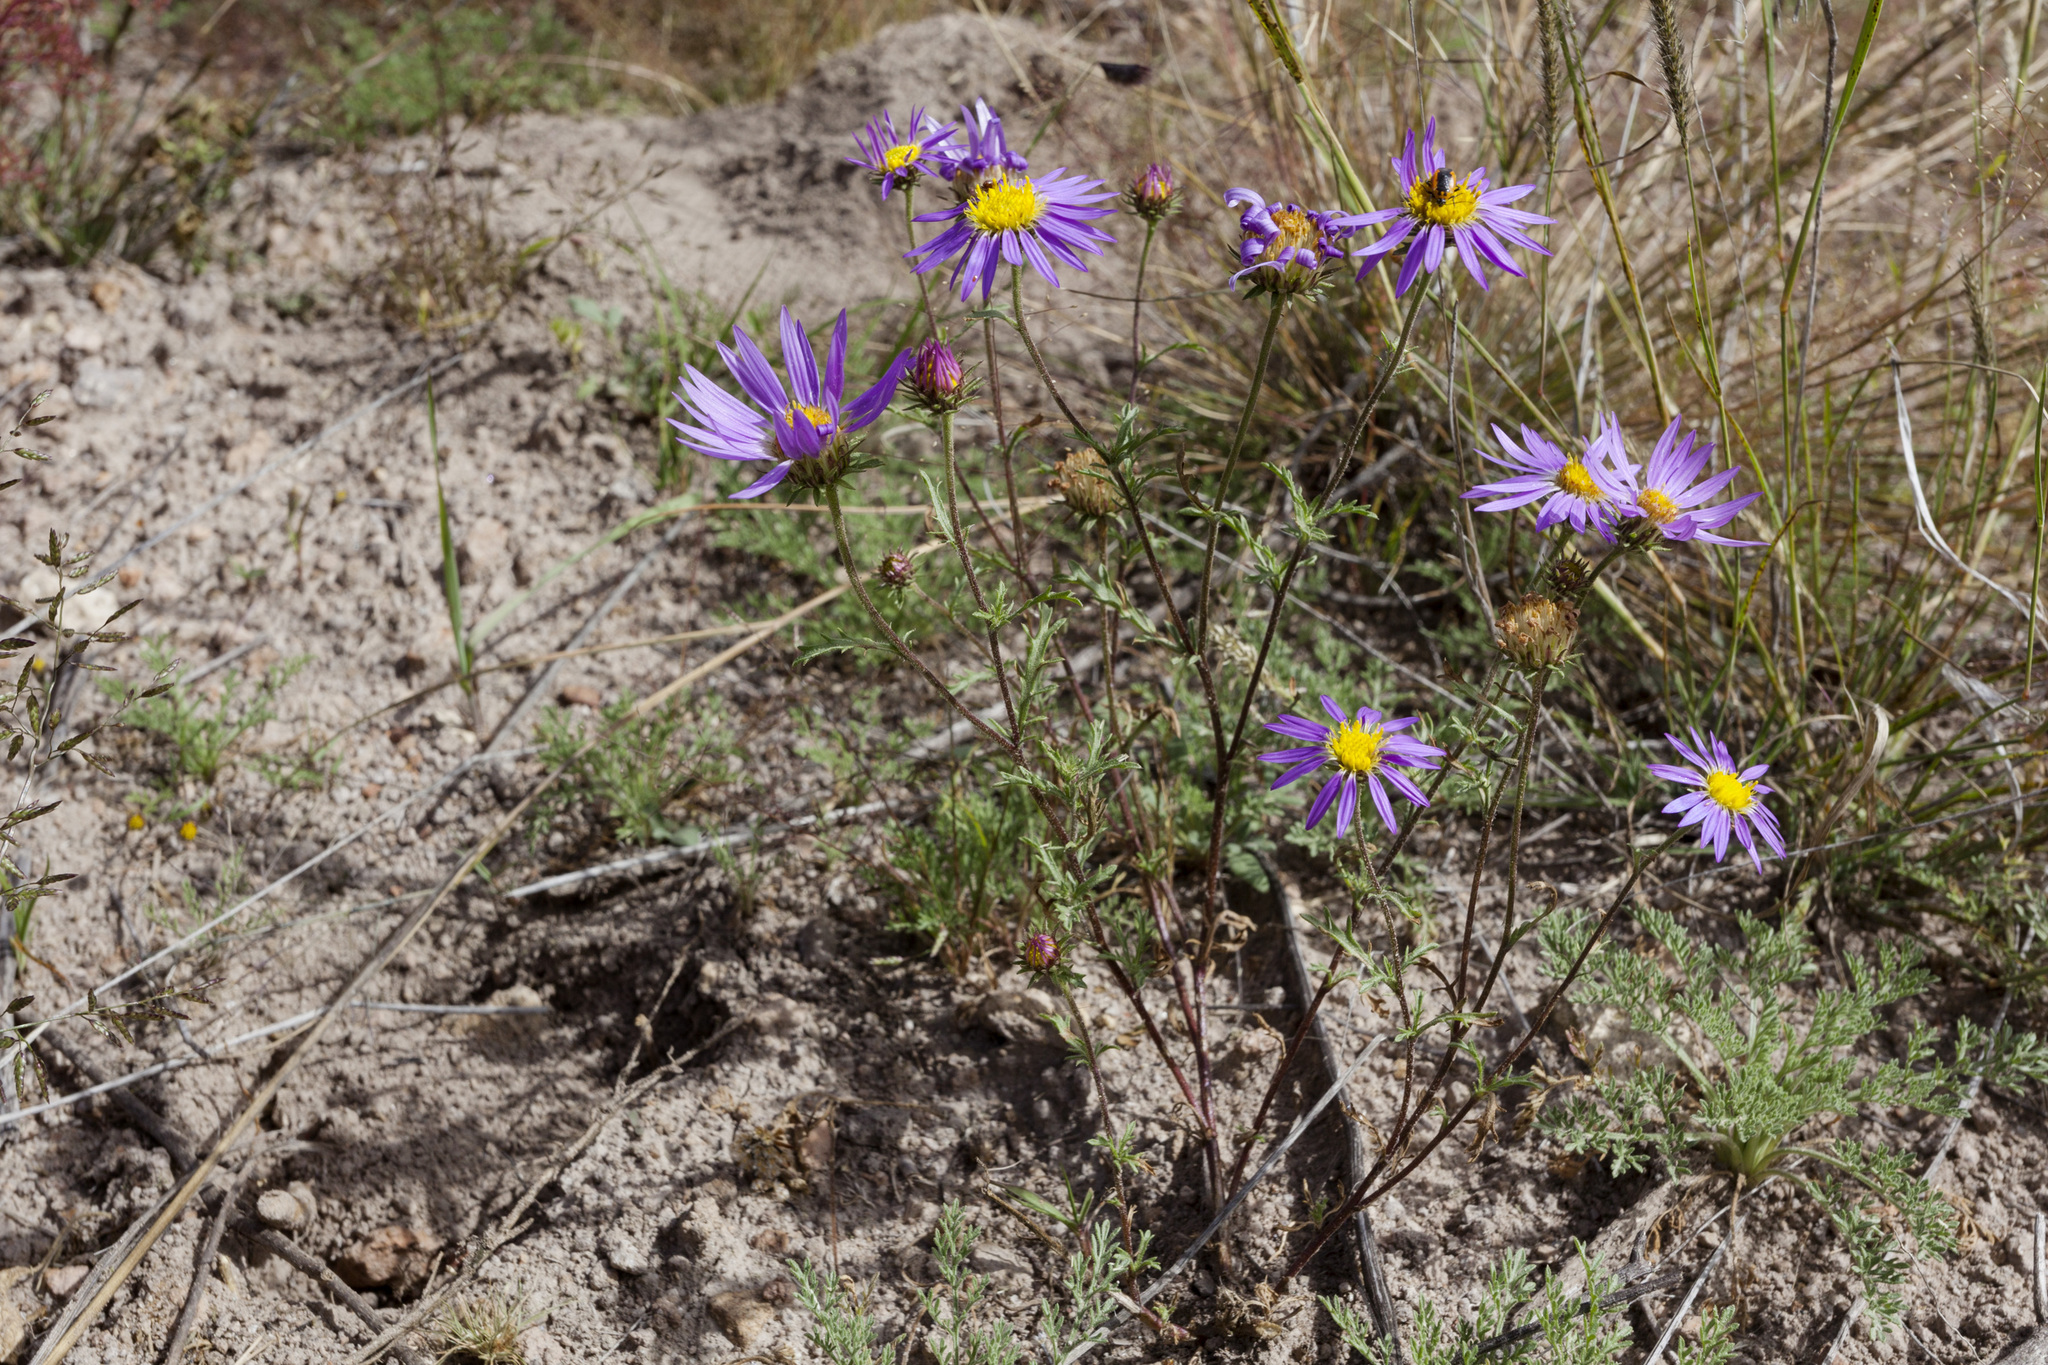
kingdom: Plantae
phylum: Tracheophyta
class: Magnoliopsida
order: Asterales
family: Asteraceae
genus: Machaeranthera
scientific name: Machaeranthera tanacetifolia
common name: Tansy-aster
